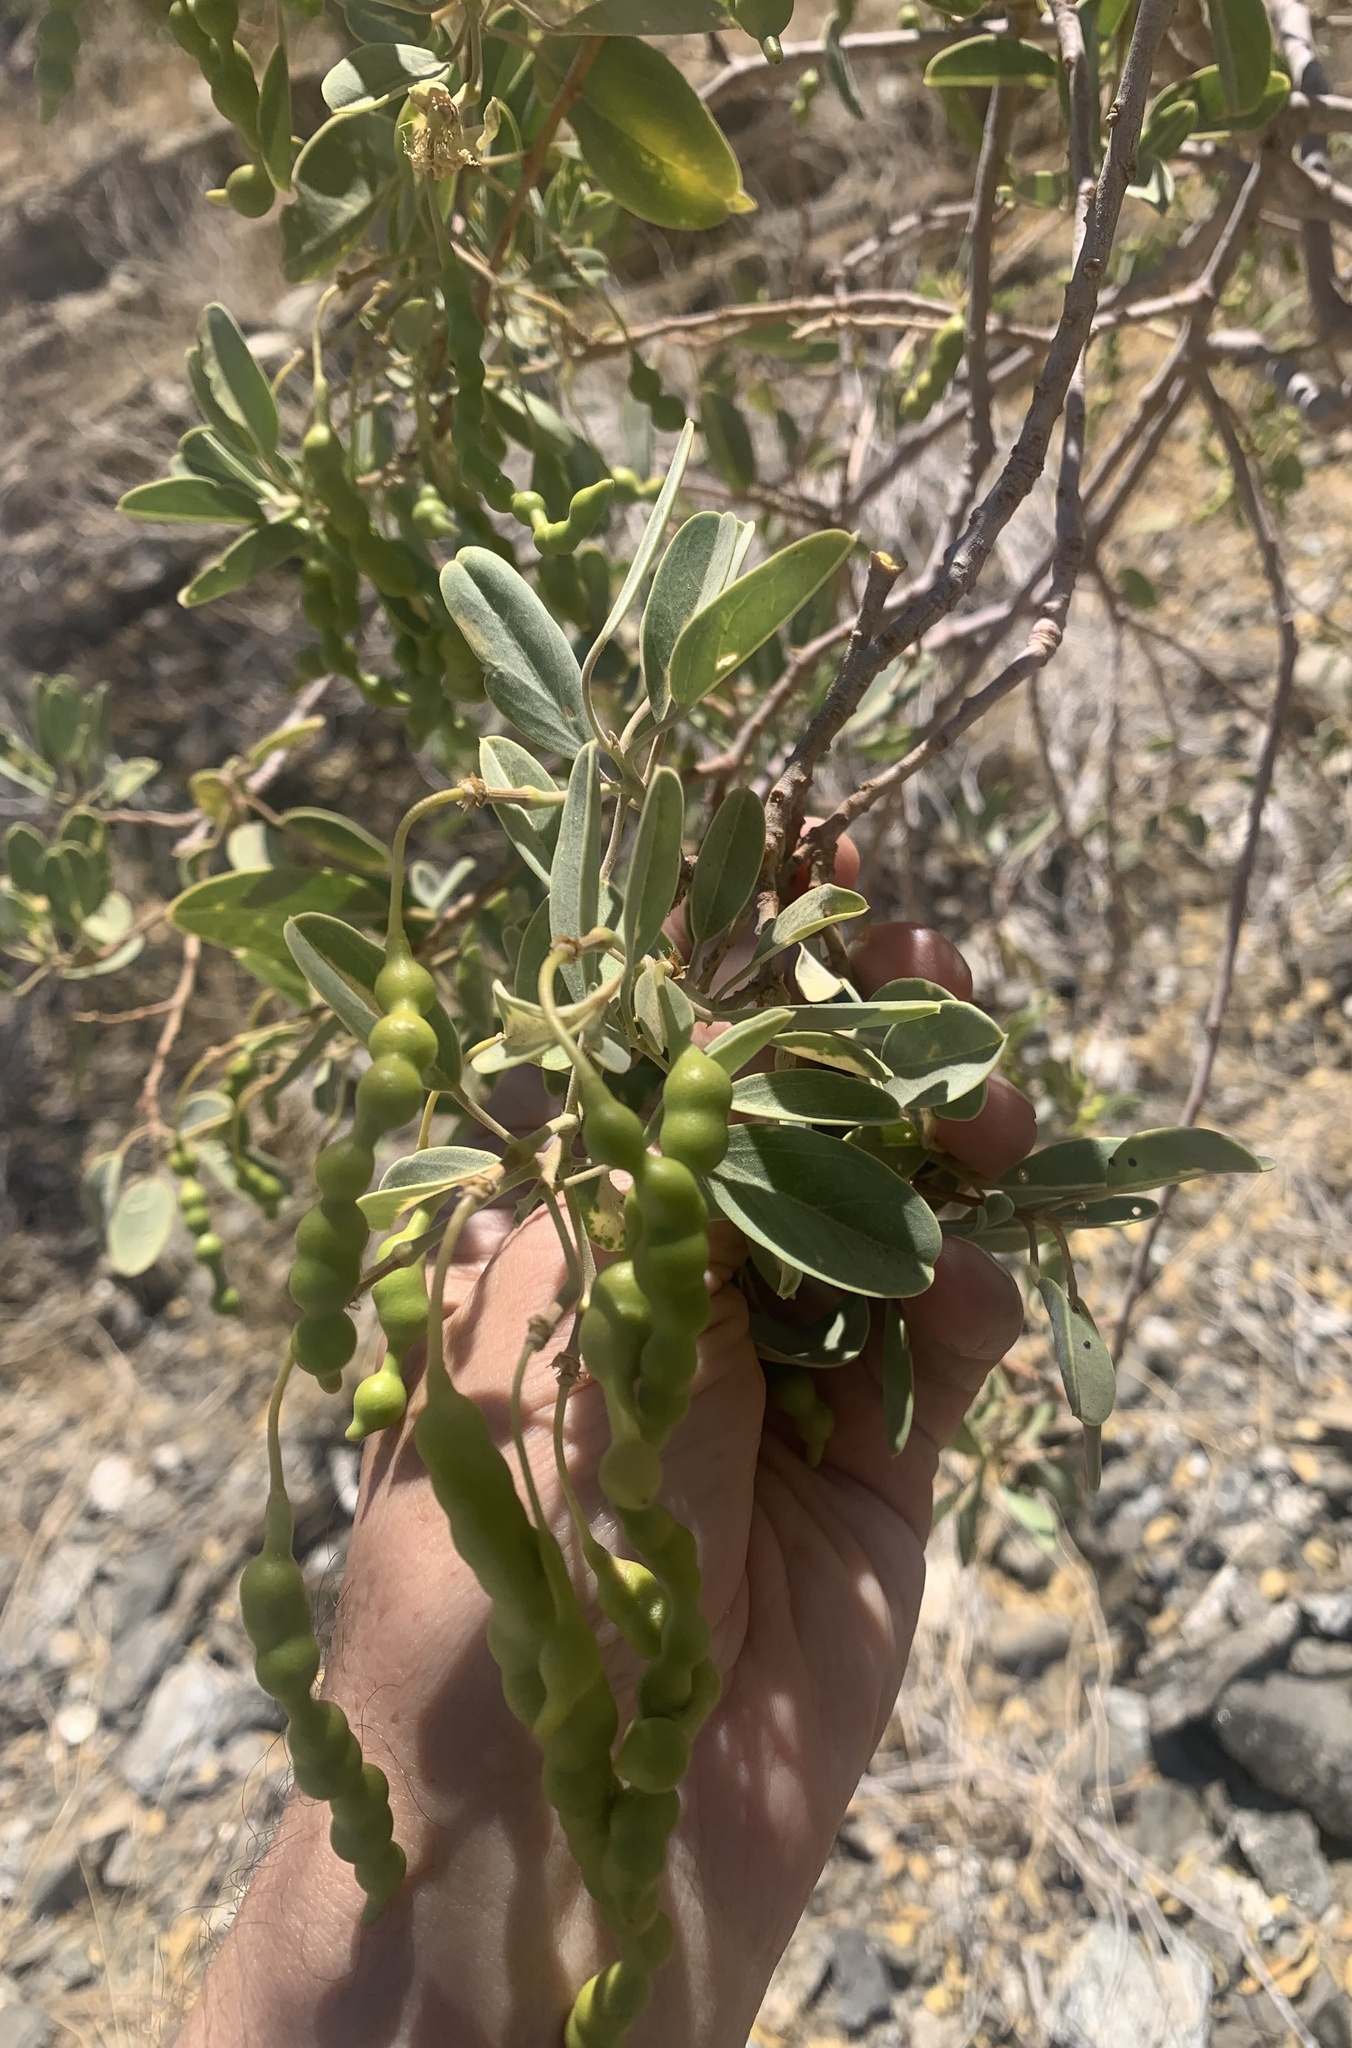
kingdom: Plantae
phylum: Tracheophyta
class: Magnoliopsida
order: Brassicales
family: Capparaceae
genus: Maerua
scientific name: Maerua schinzii
